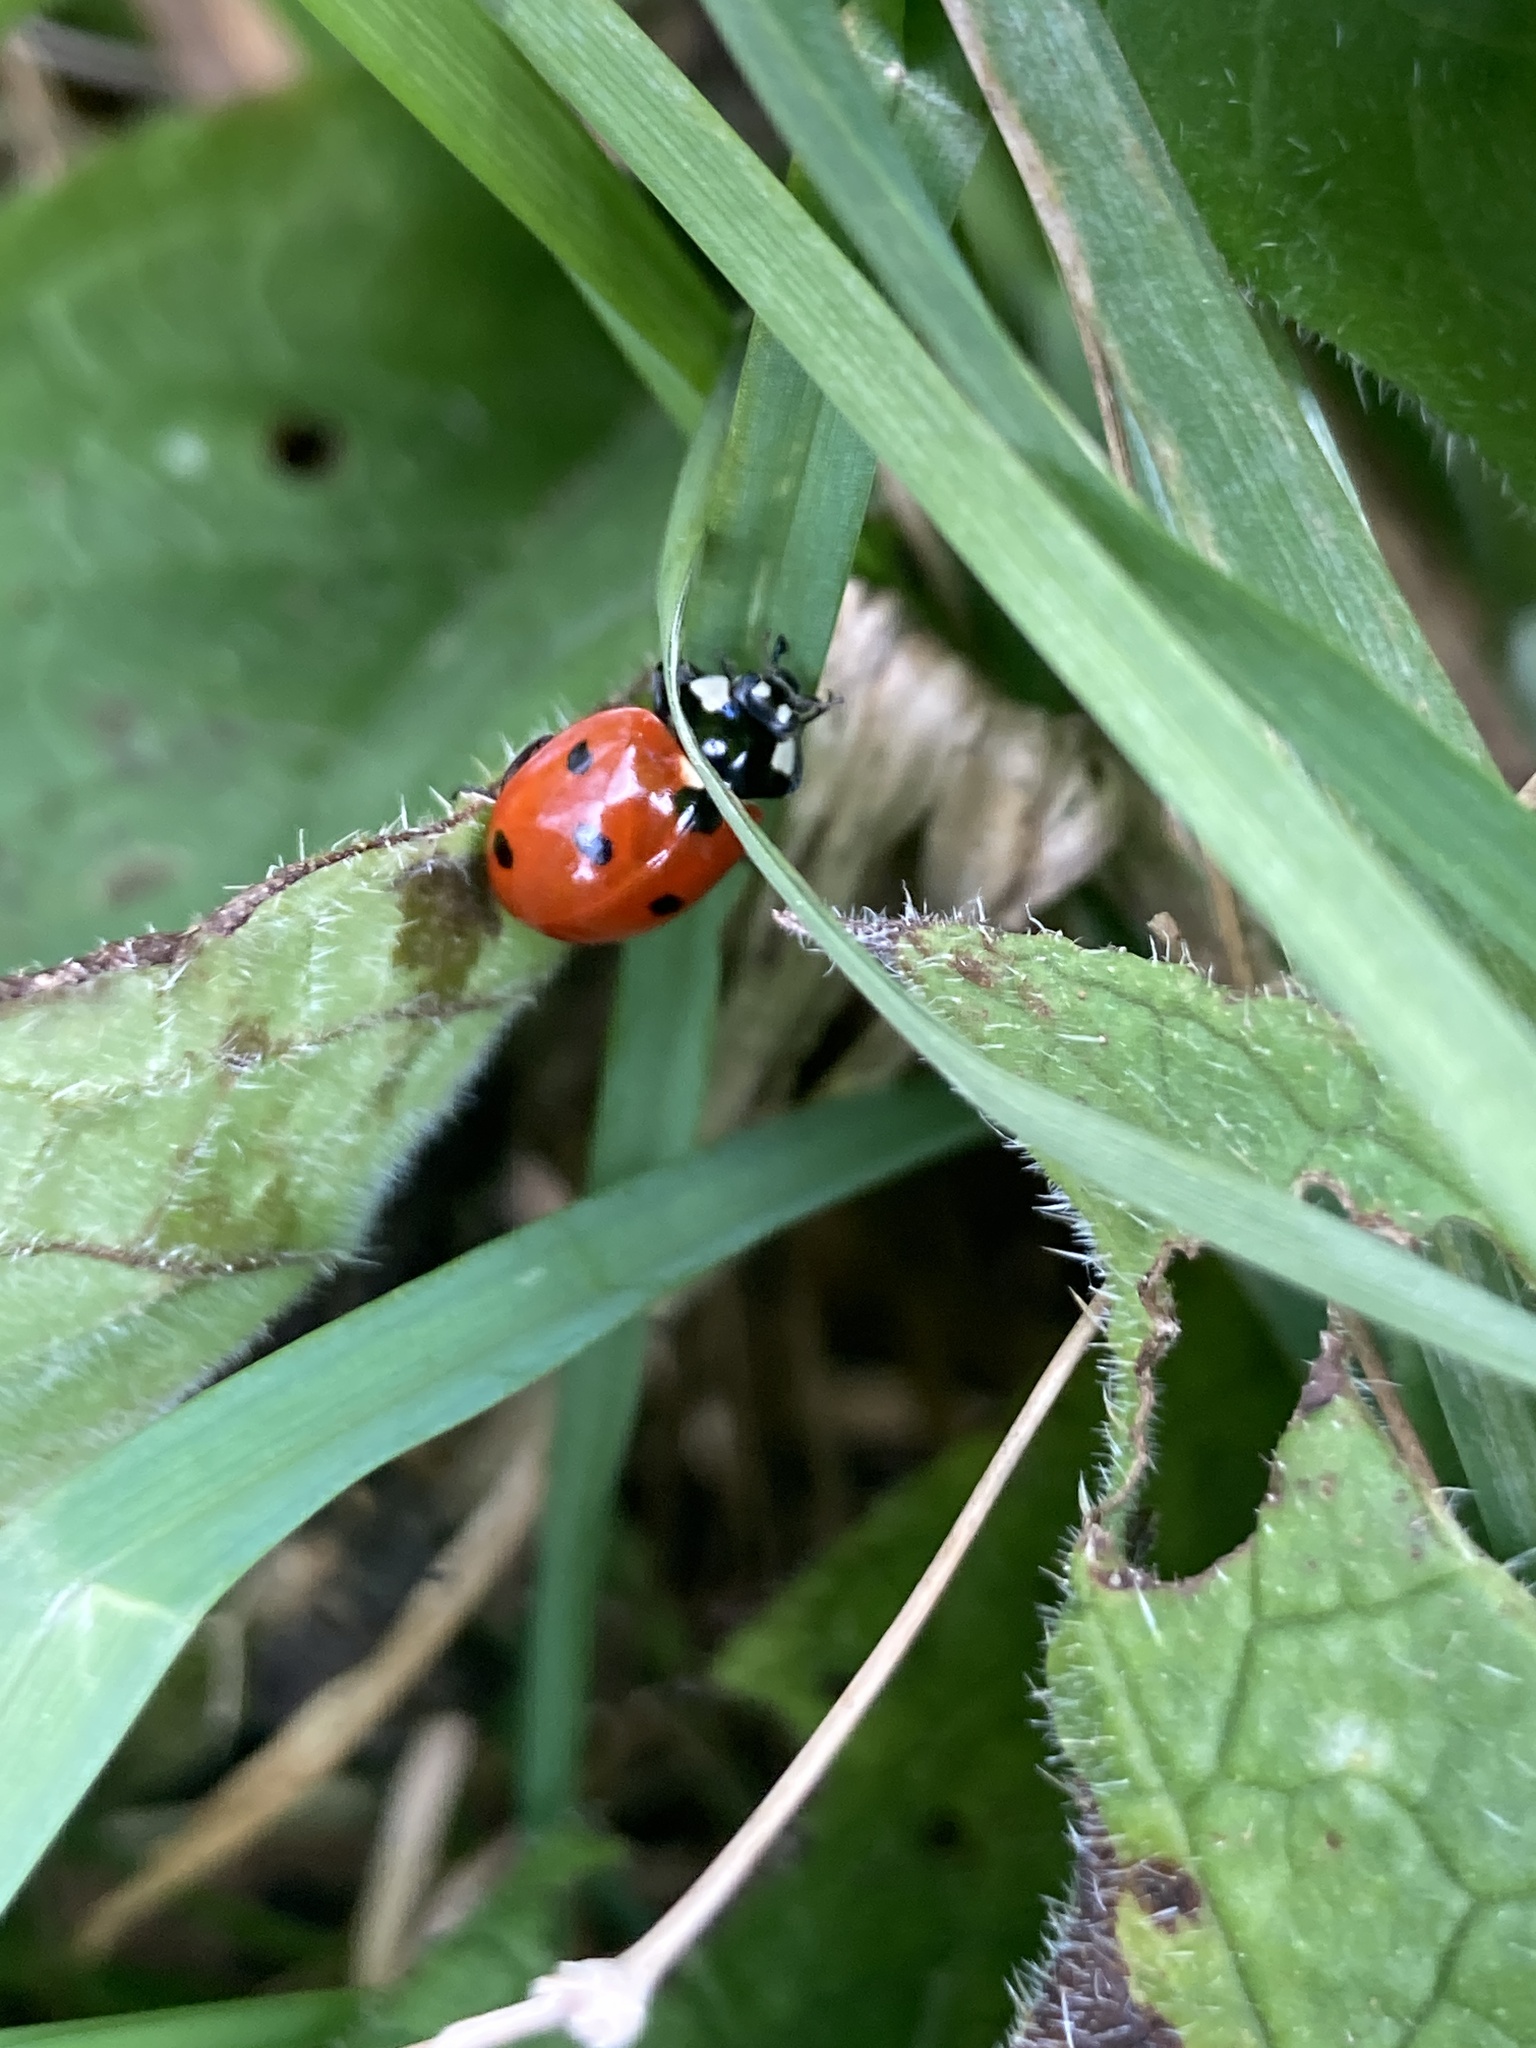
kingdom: Animalia
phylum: Arthropoda
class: Insecta
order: Coleoptera
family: Coccinellidae
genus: Coccinella
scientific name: Coccinella septempunctata
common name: Sevenspotted lady beetle
